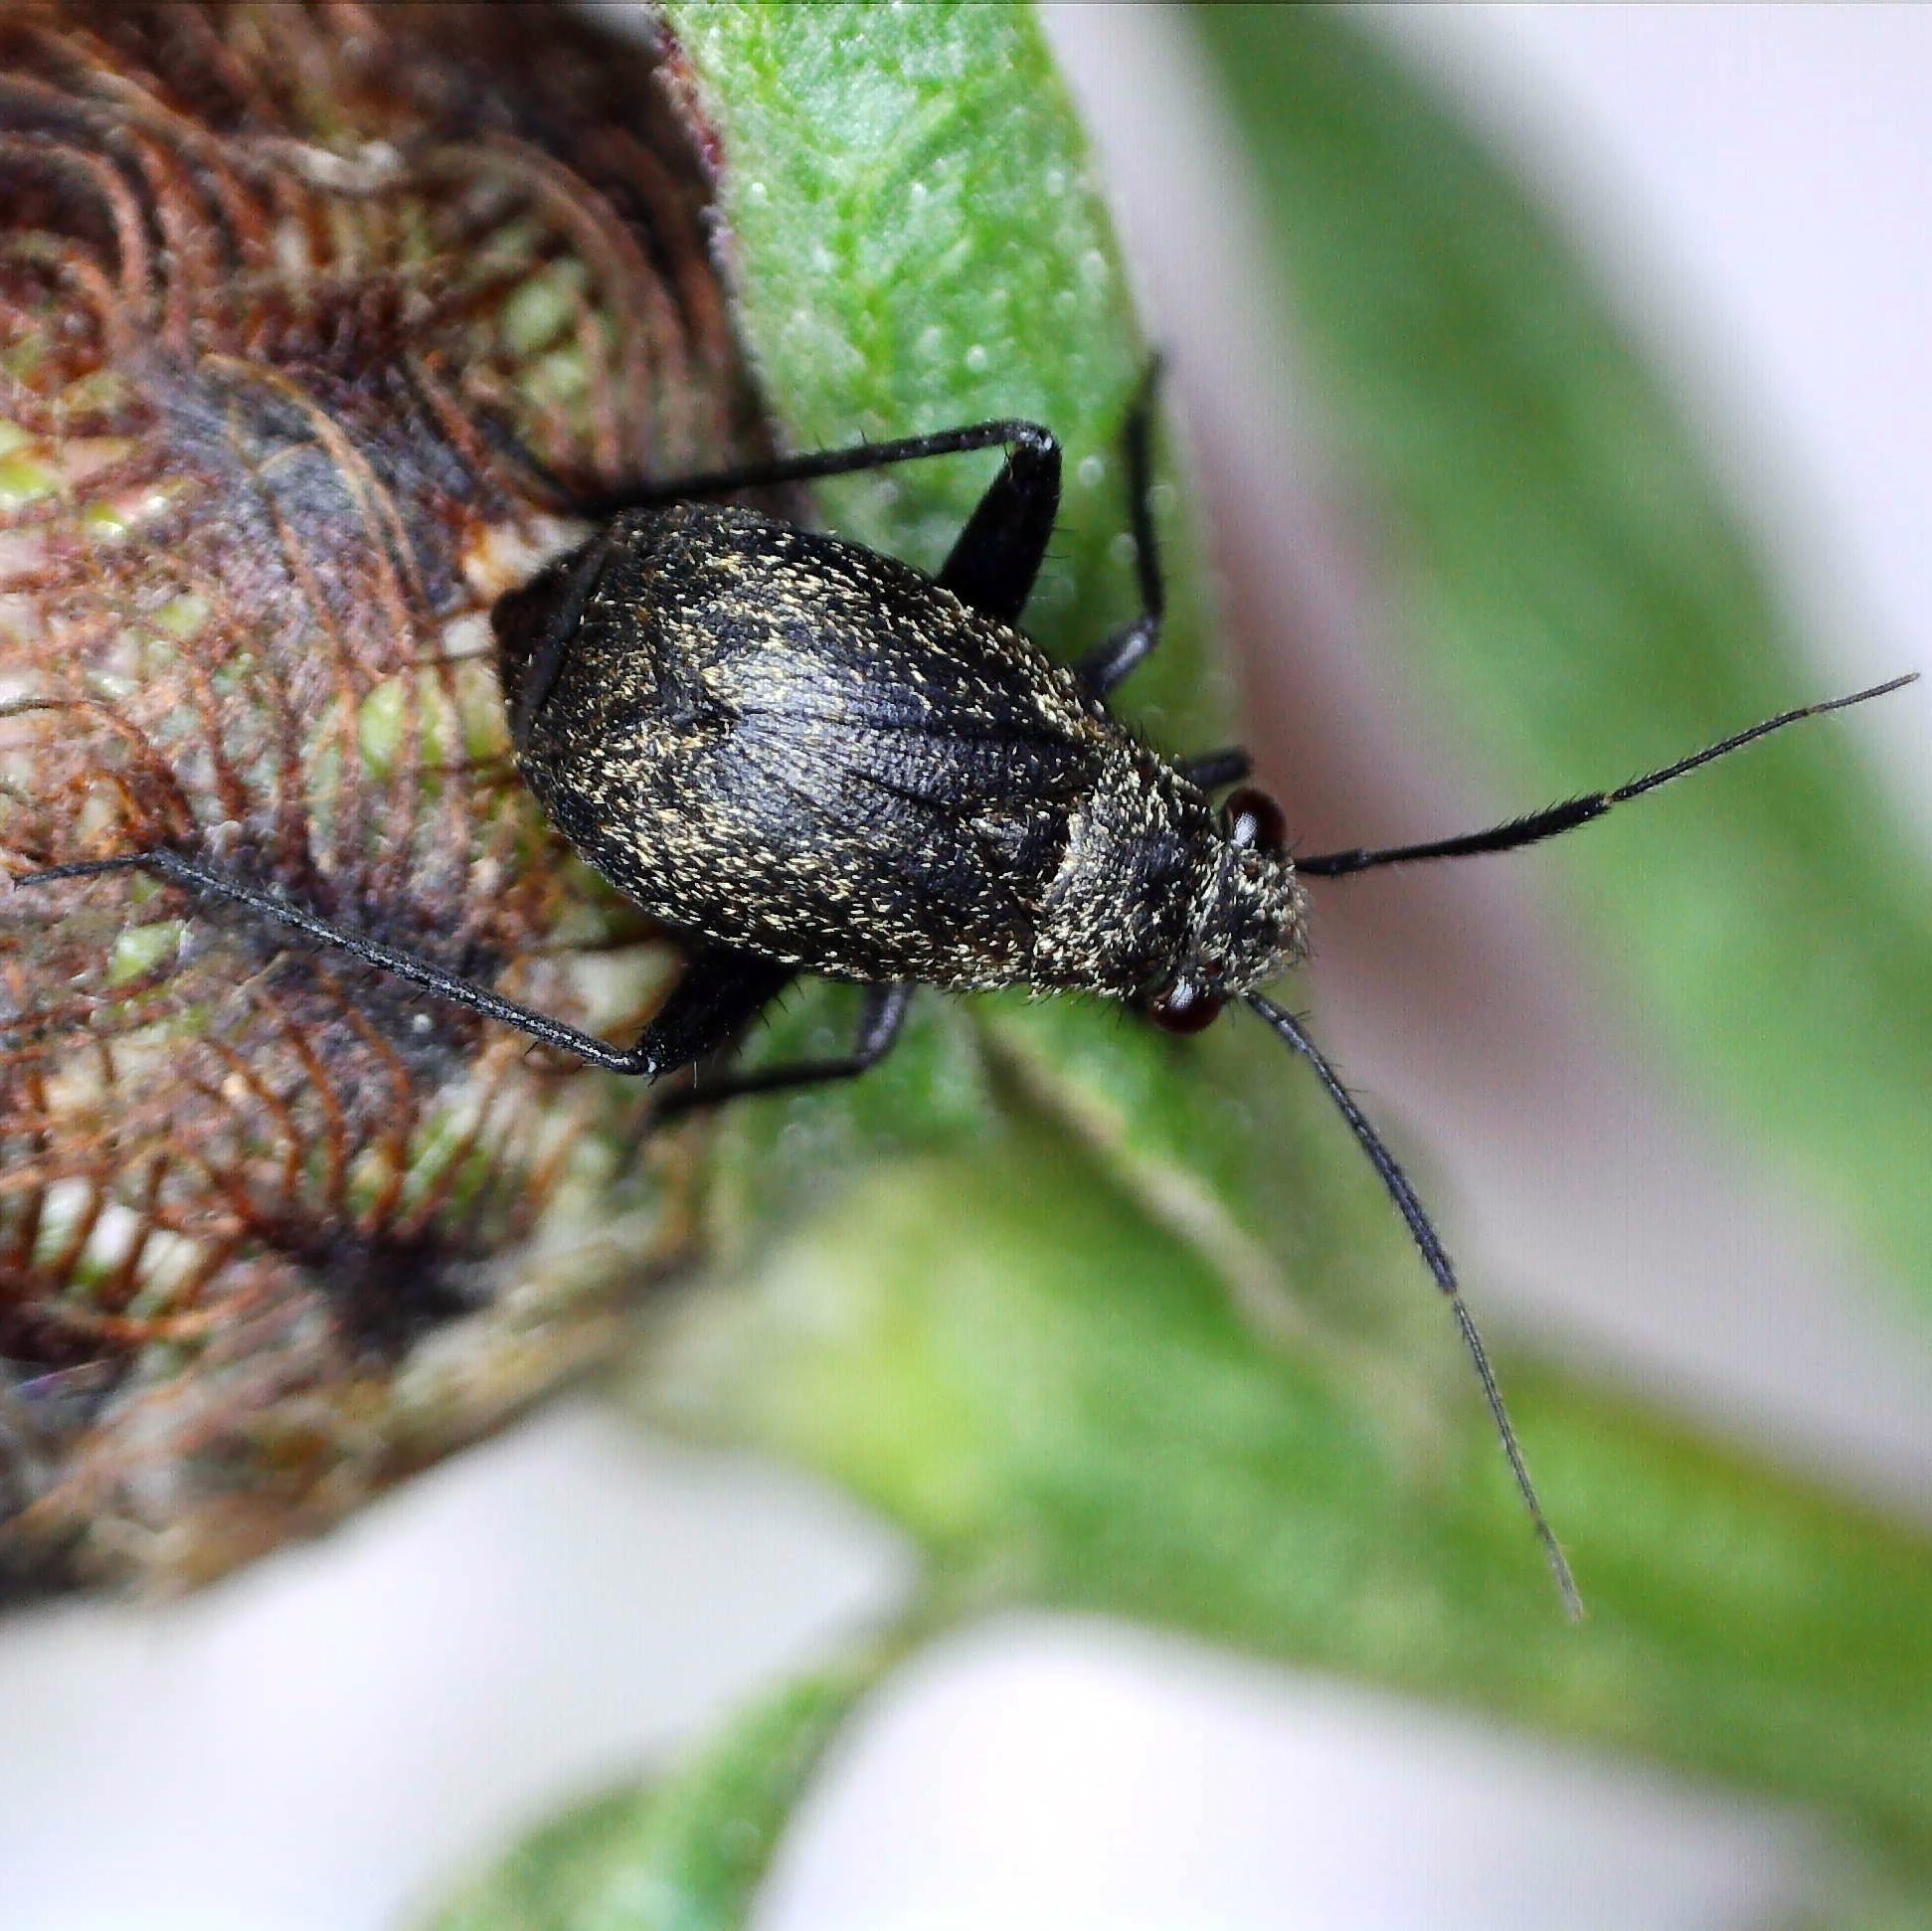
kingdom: Animalia
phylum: Arthropoda
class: Insecta
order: Hemiptera
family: Miridae
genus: Orthocephalus
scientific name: Orthocephalus coriaceus
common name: Plant bug
